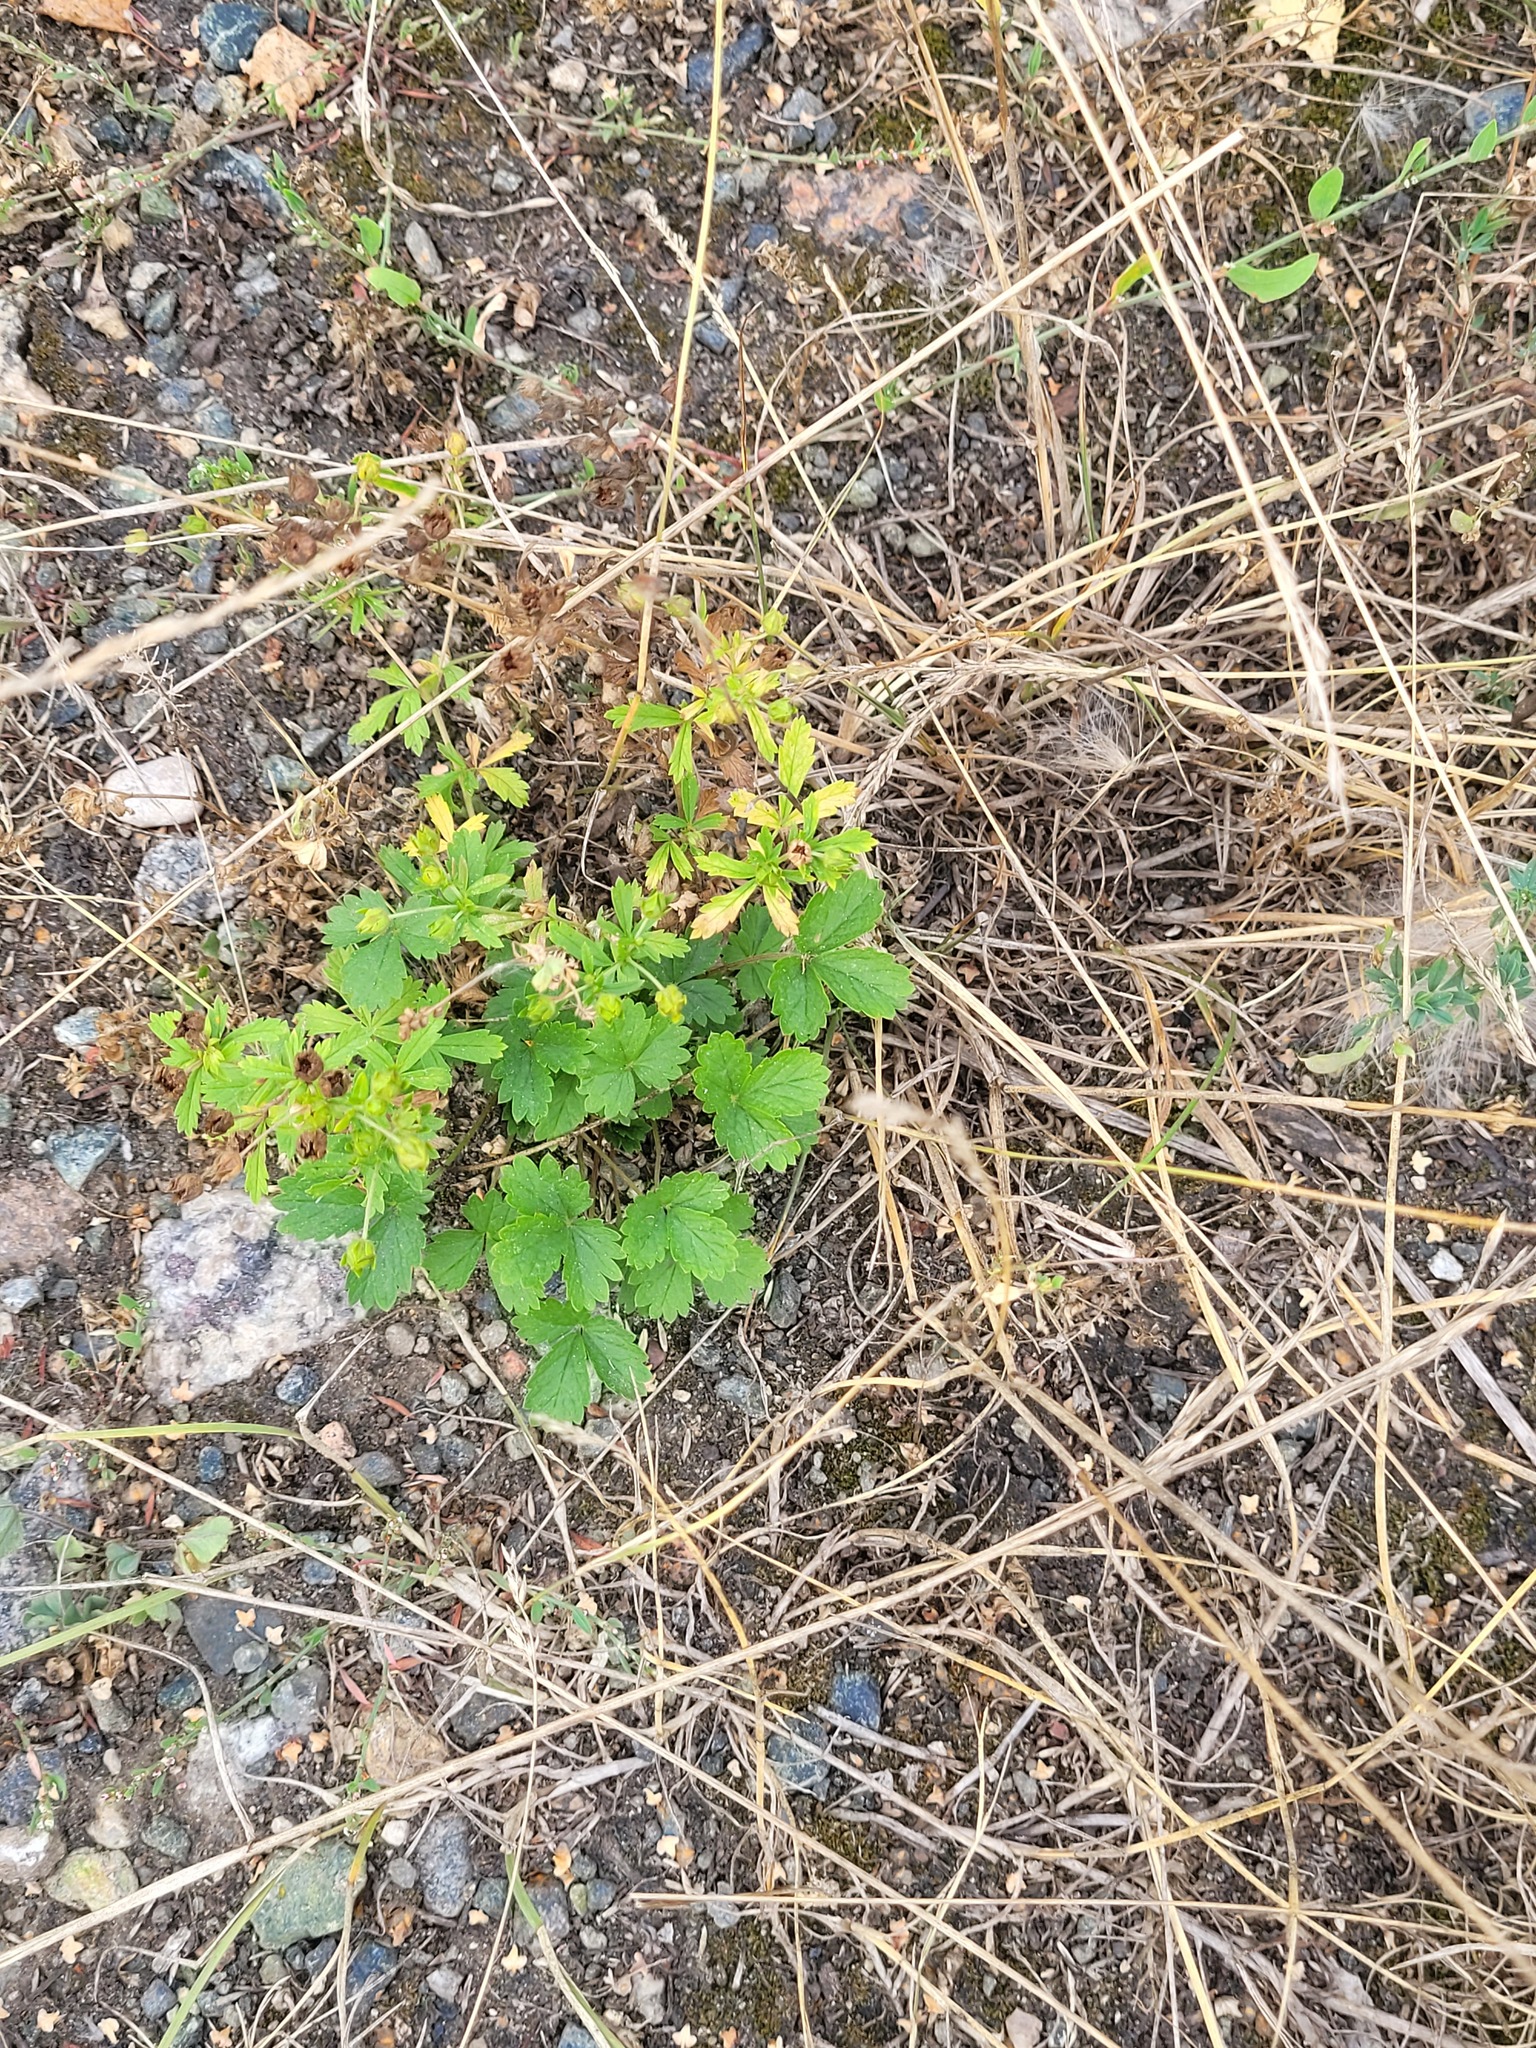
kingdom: Plantae
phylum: Tracheophyta
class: Magnoliopsida
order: Rosales
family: Rosaceae
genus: Potentilla
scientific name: Potentilla norvegica
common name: Ternate-leaved cinquefoil
